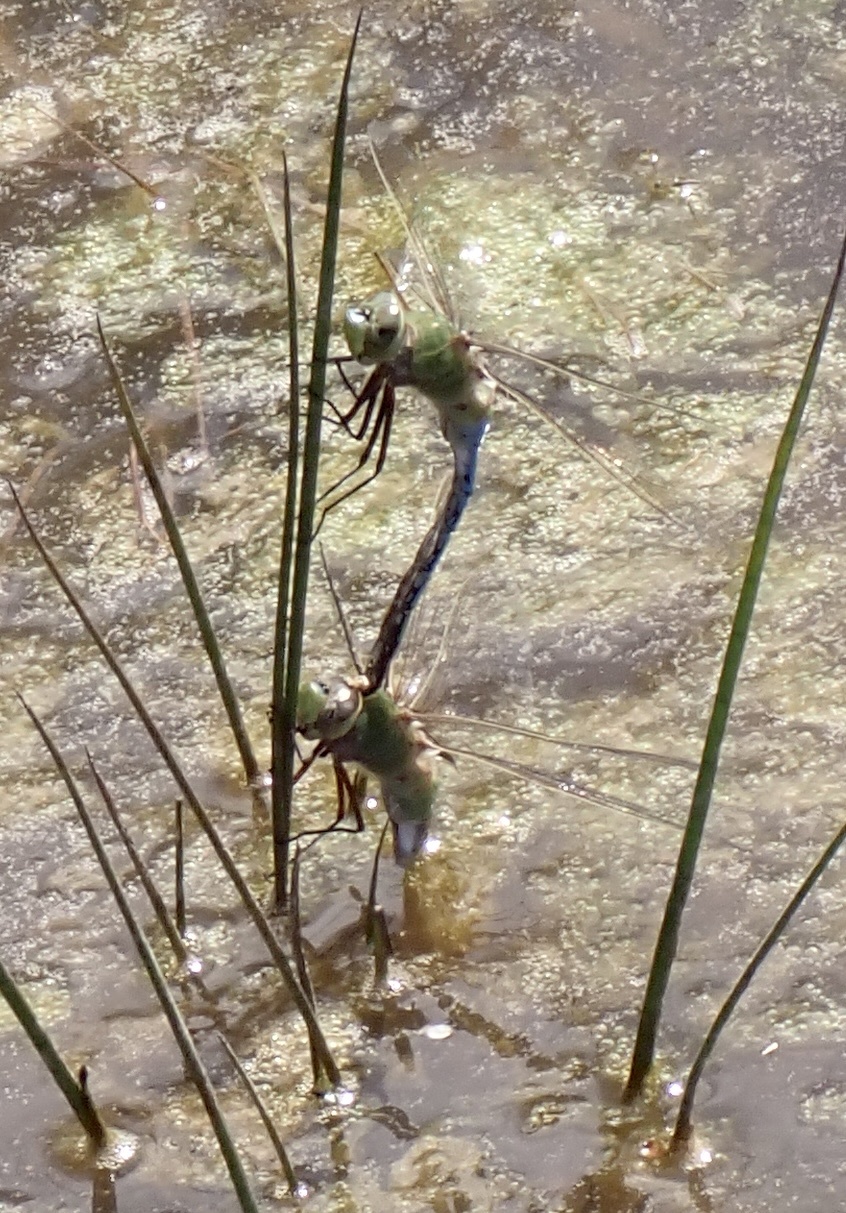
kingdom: Animalia
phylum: Arthropoda
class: Insecta
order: Odonata
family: Aeshnidae
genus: Anax
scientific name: Anax junius
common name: Common green darner
